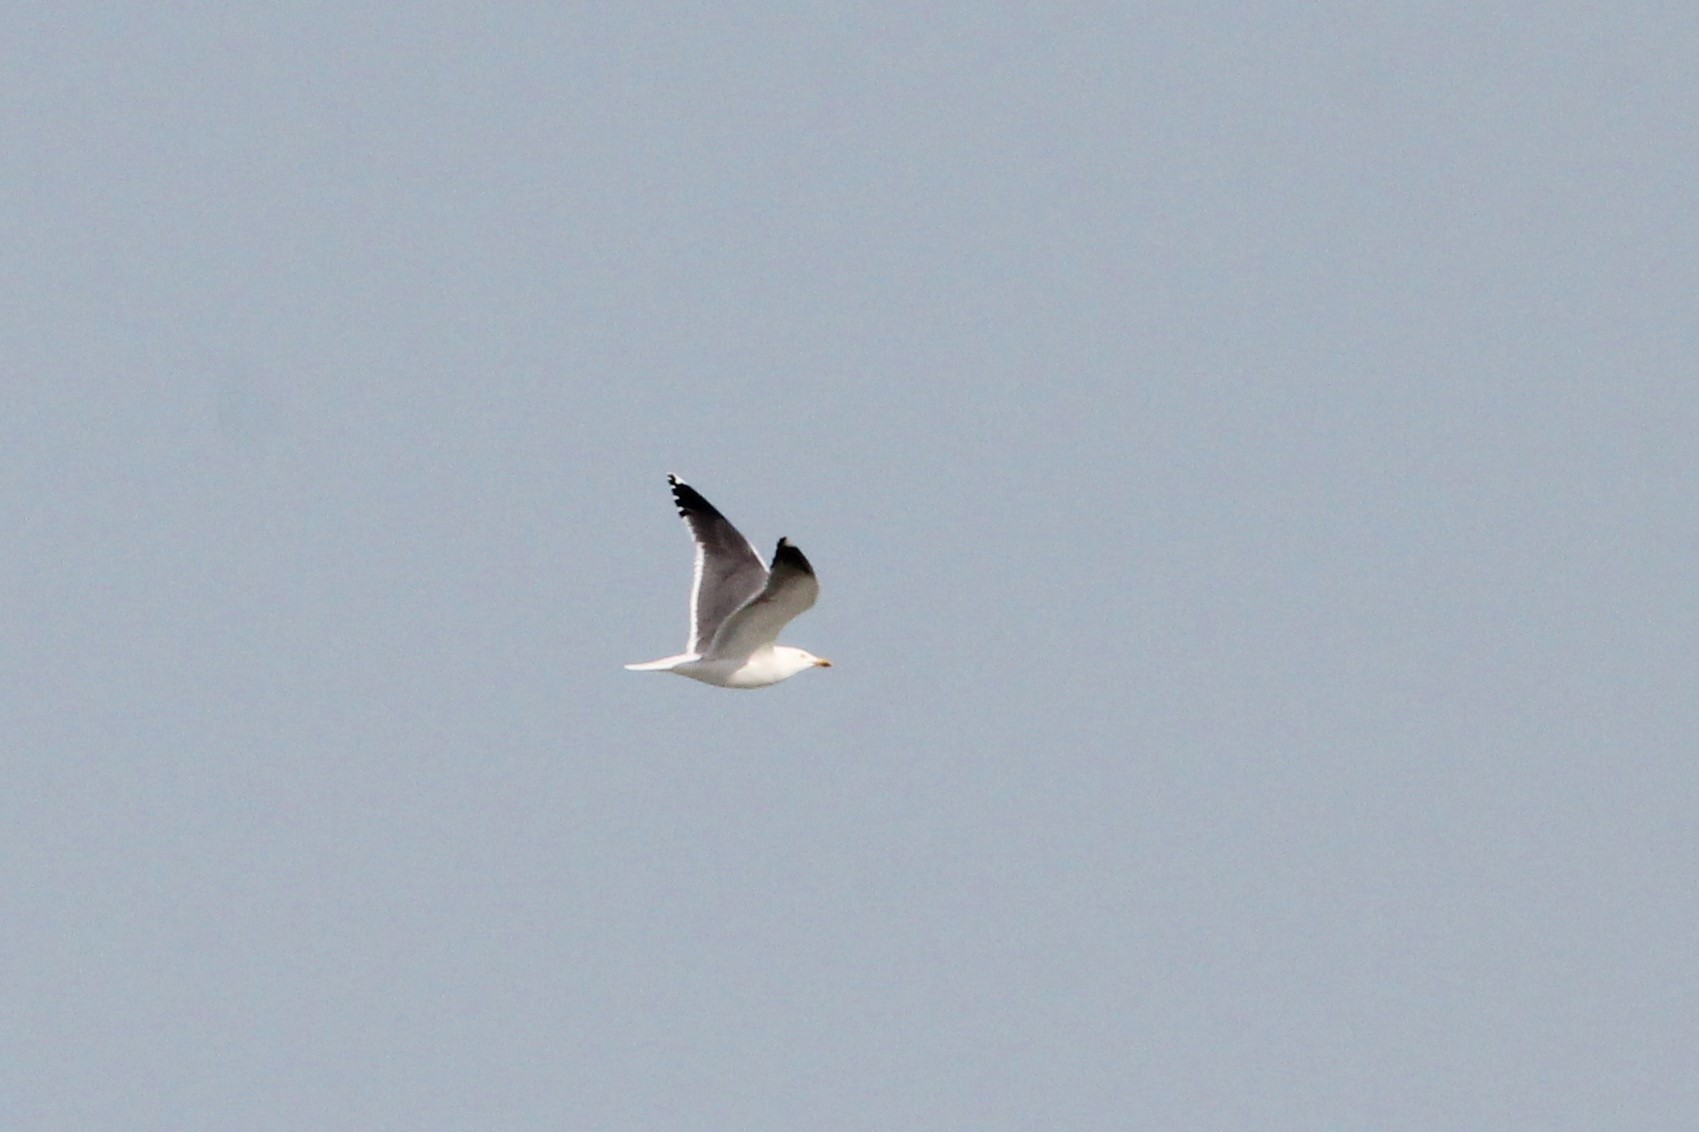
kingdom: Animalia
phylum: Chordata
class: Aves
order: Charadriiformes
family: Laridae
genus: Larus
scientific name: Larus fuscus
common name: Lesser black-backed gull
